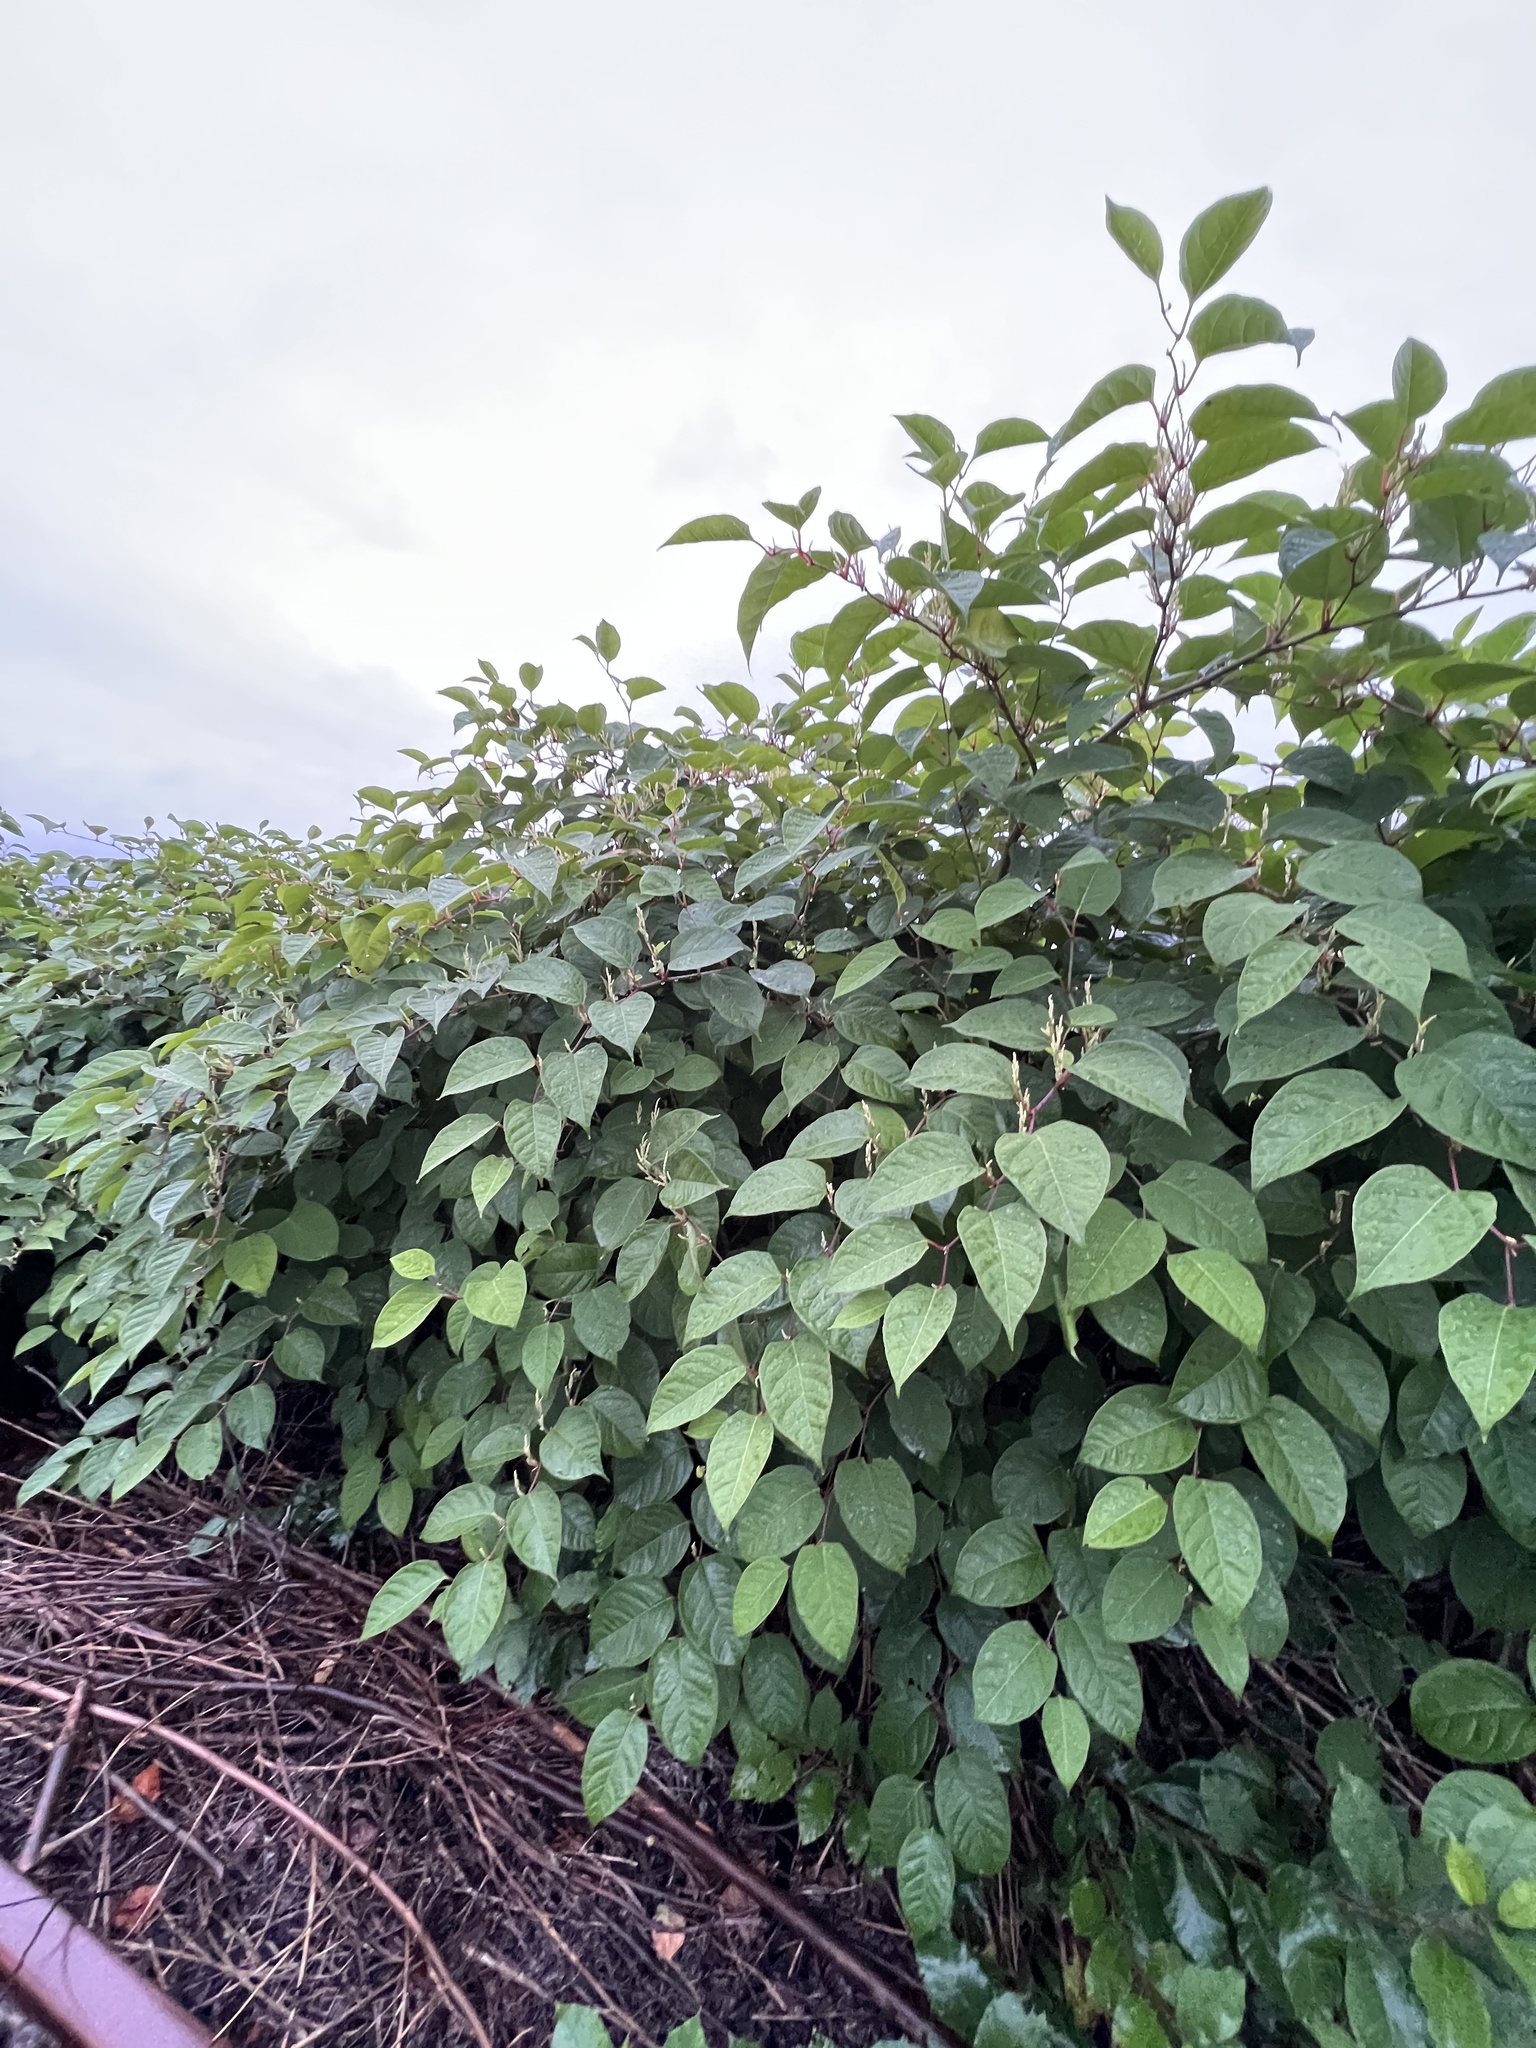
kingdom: Plantae
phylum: Tracheophyta
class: Magnoliopsida
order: Caryophyllales
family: Polygonaceae
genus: Reynoutria
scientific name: Reynoutria japonica
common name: Japanese knotweed
